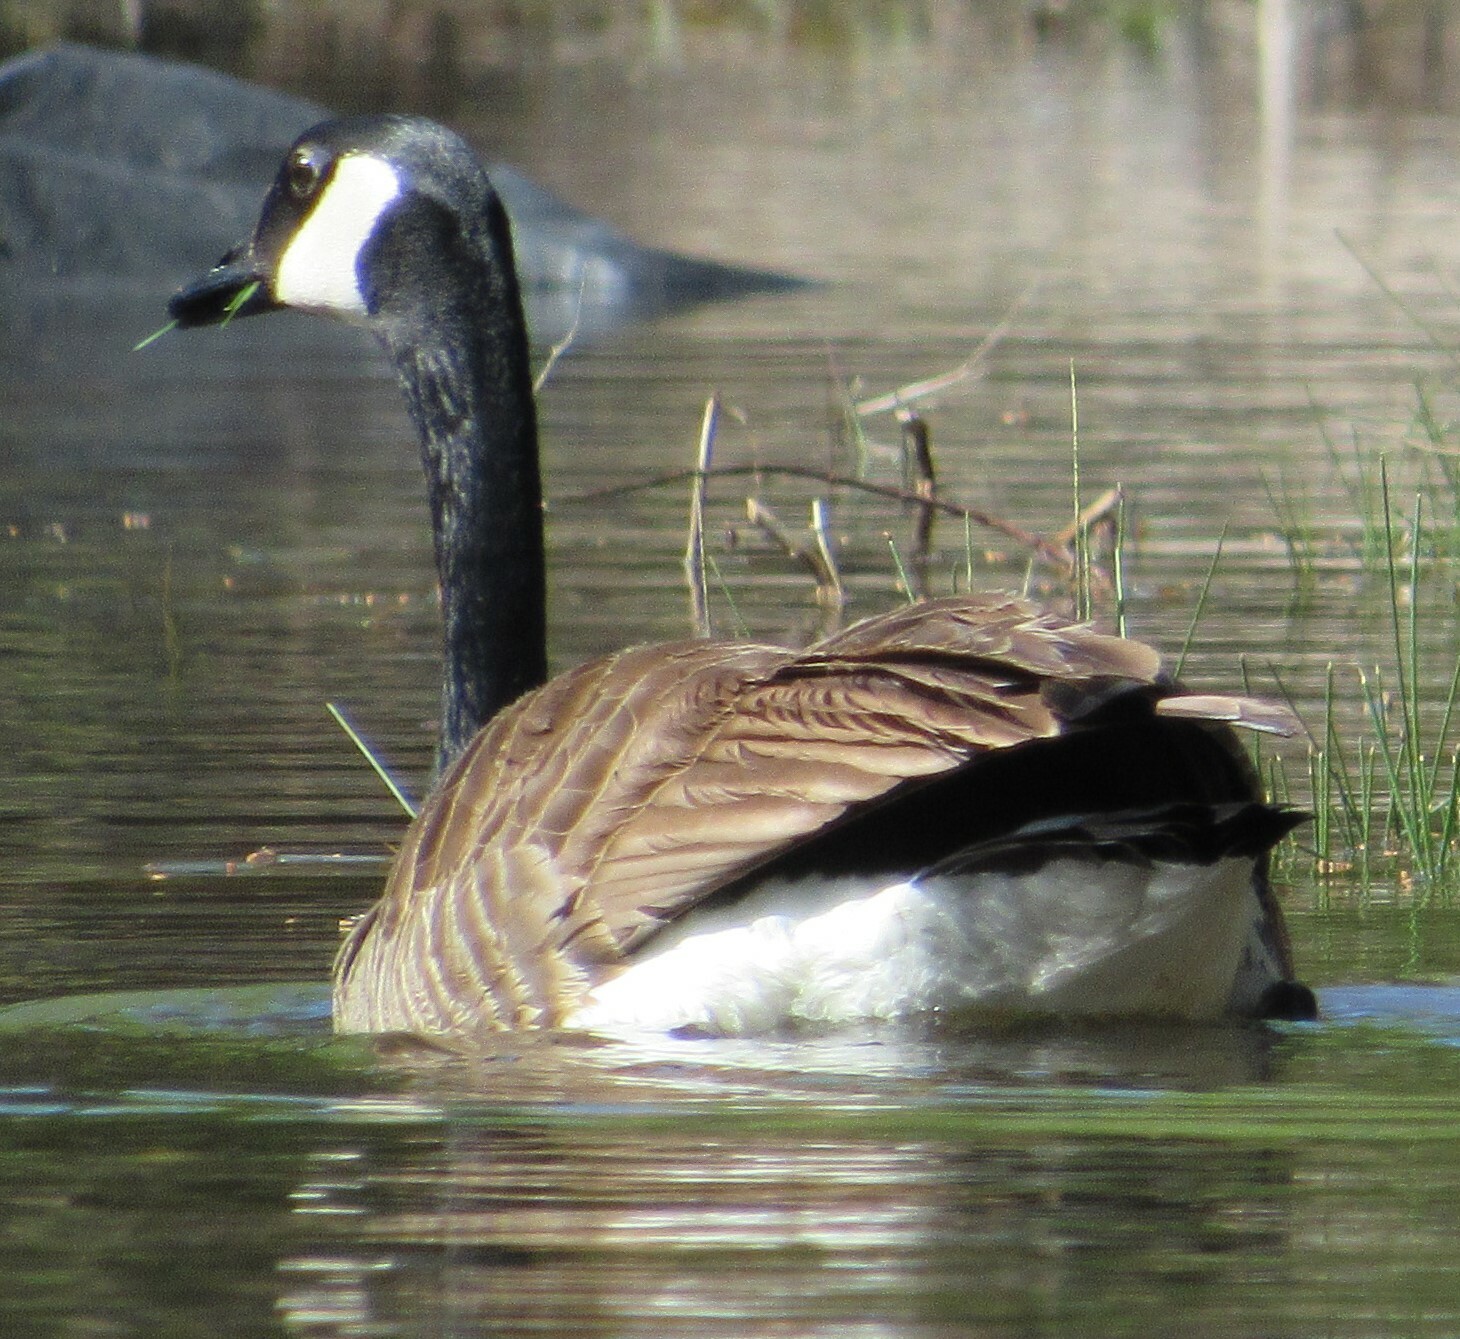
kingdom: Animalia
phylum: Chordata
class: Aves
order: Anseriformes
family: Anatidae
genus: Branta
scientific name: Branta canadensis
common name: Canada goose
